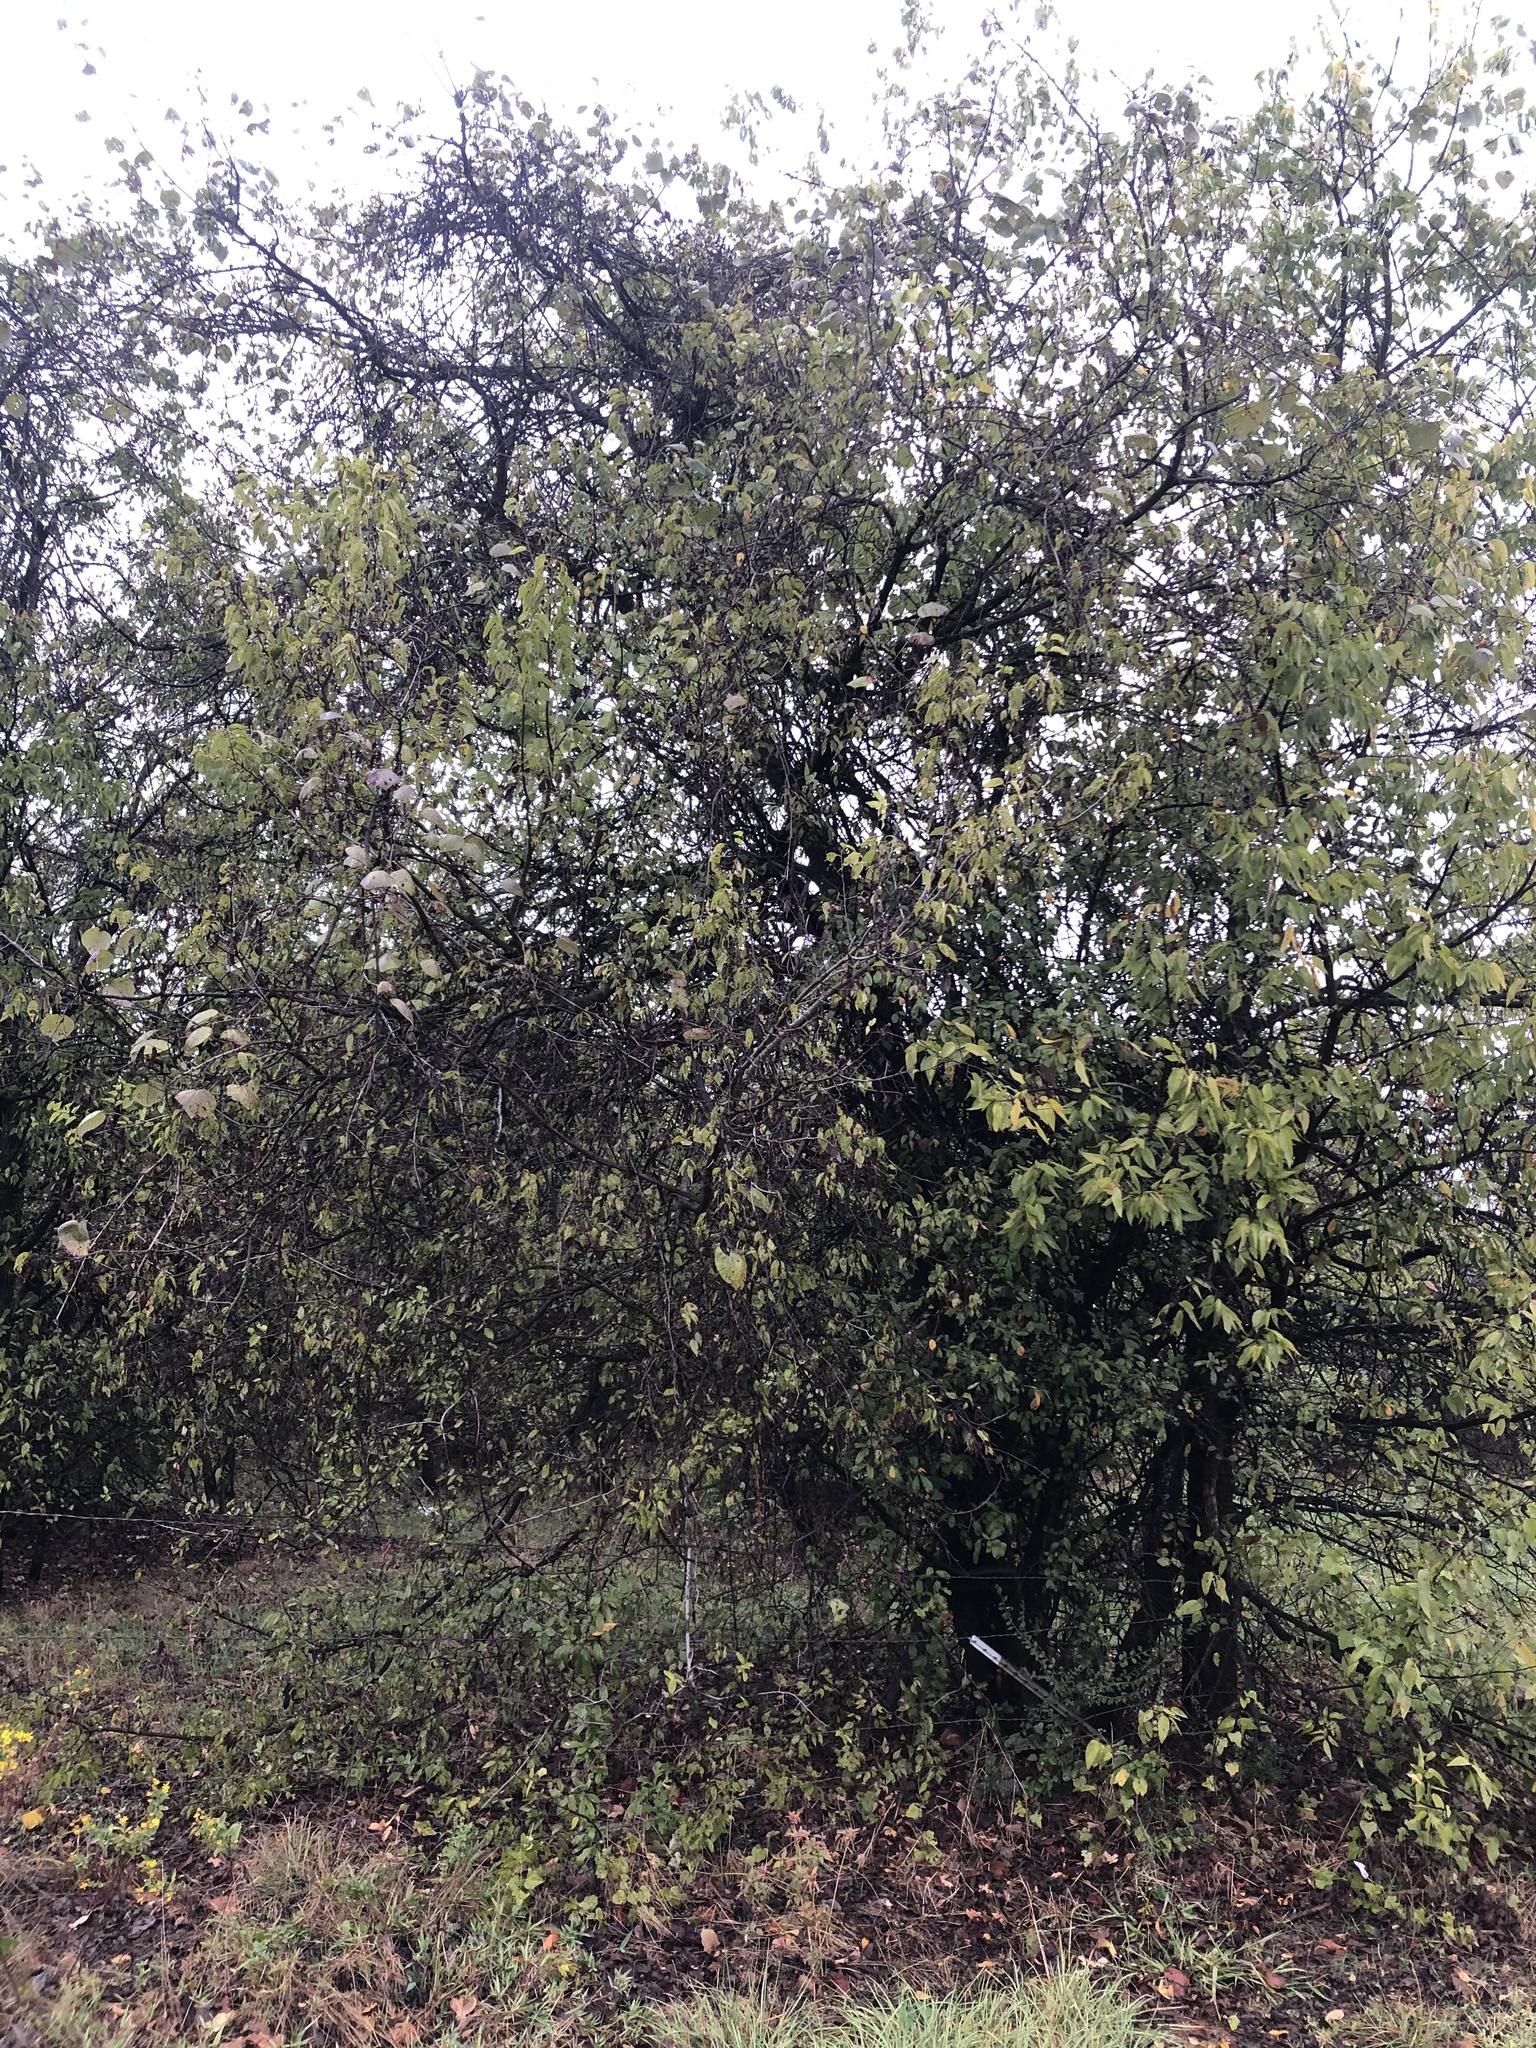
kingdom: Plantae
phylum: Tracheophyta
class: Magnoliopsida
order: Rosales
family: Cannabaceae
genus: Celtis
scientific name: Celtis laevigata
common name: Sugarberry
